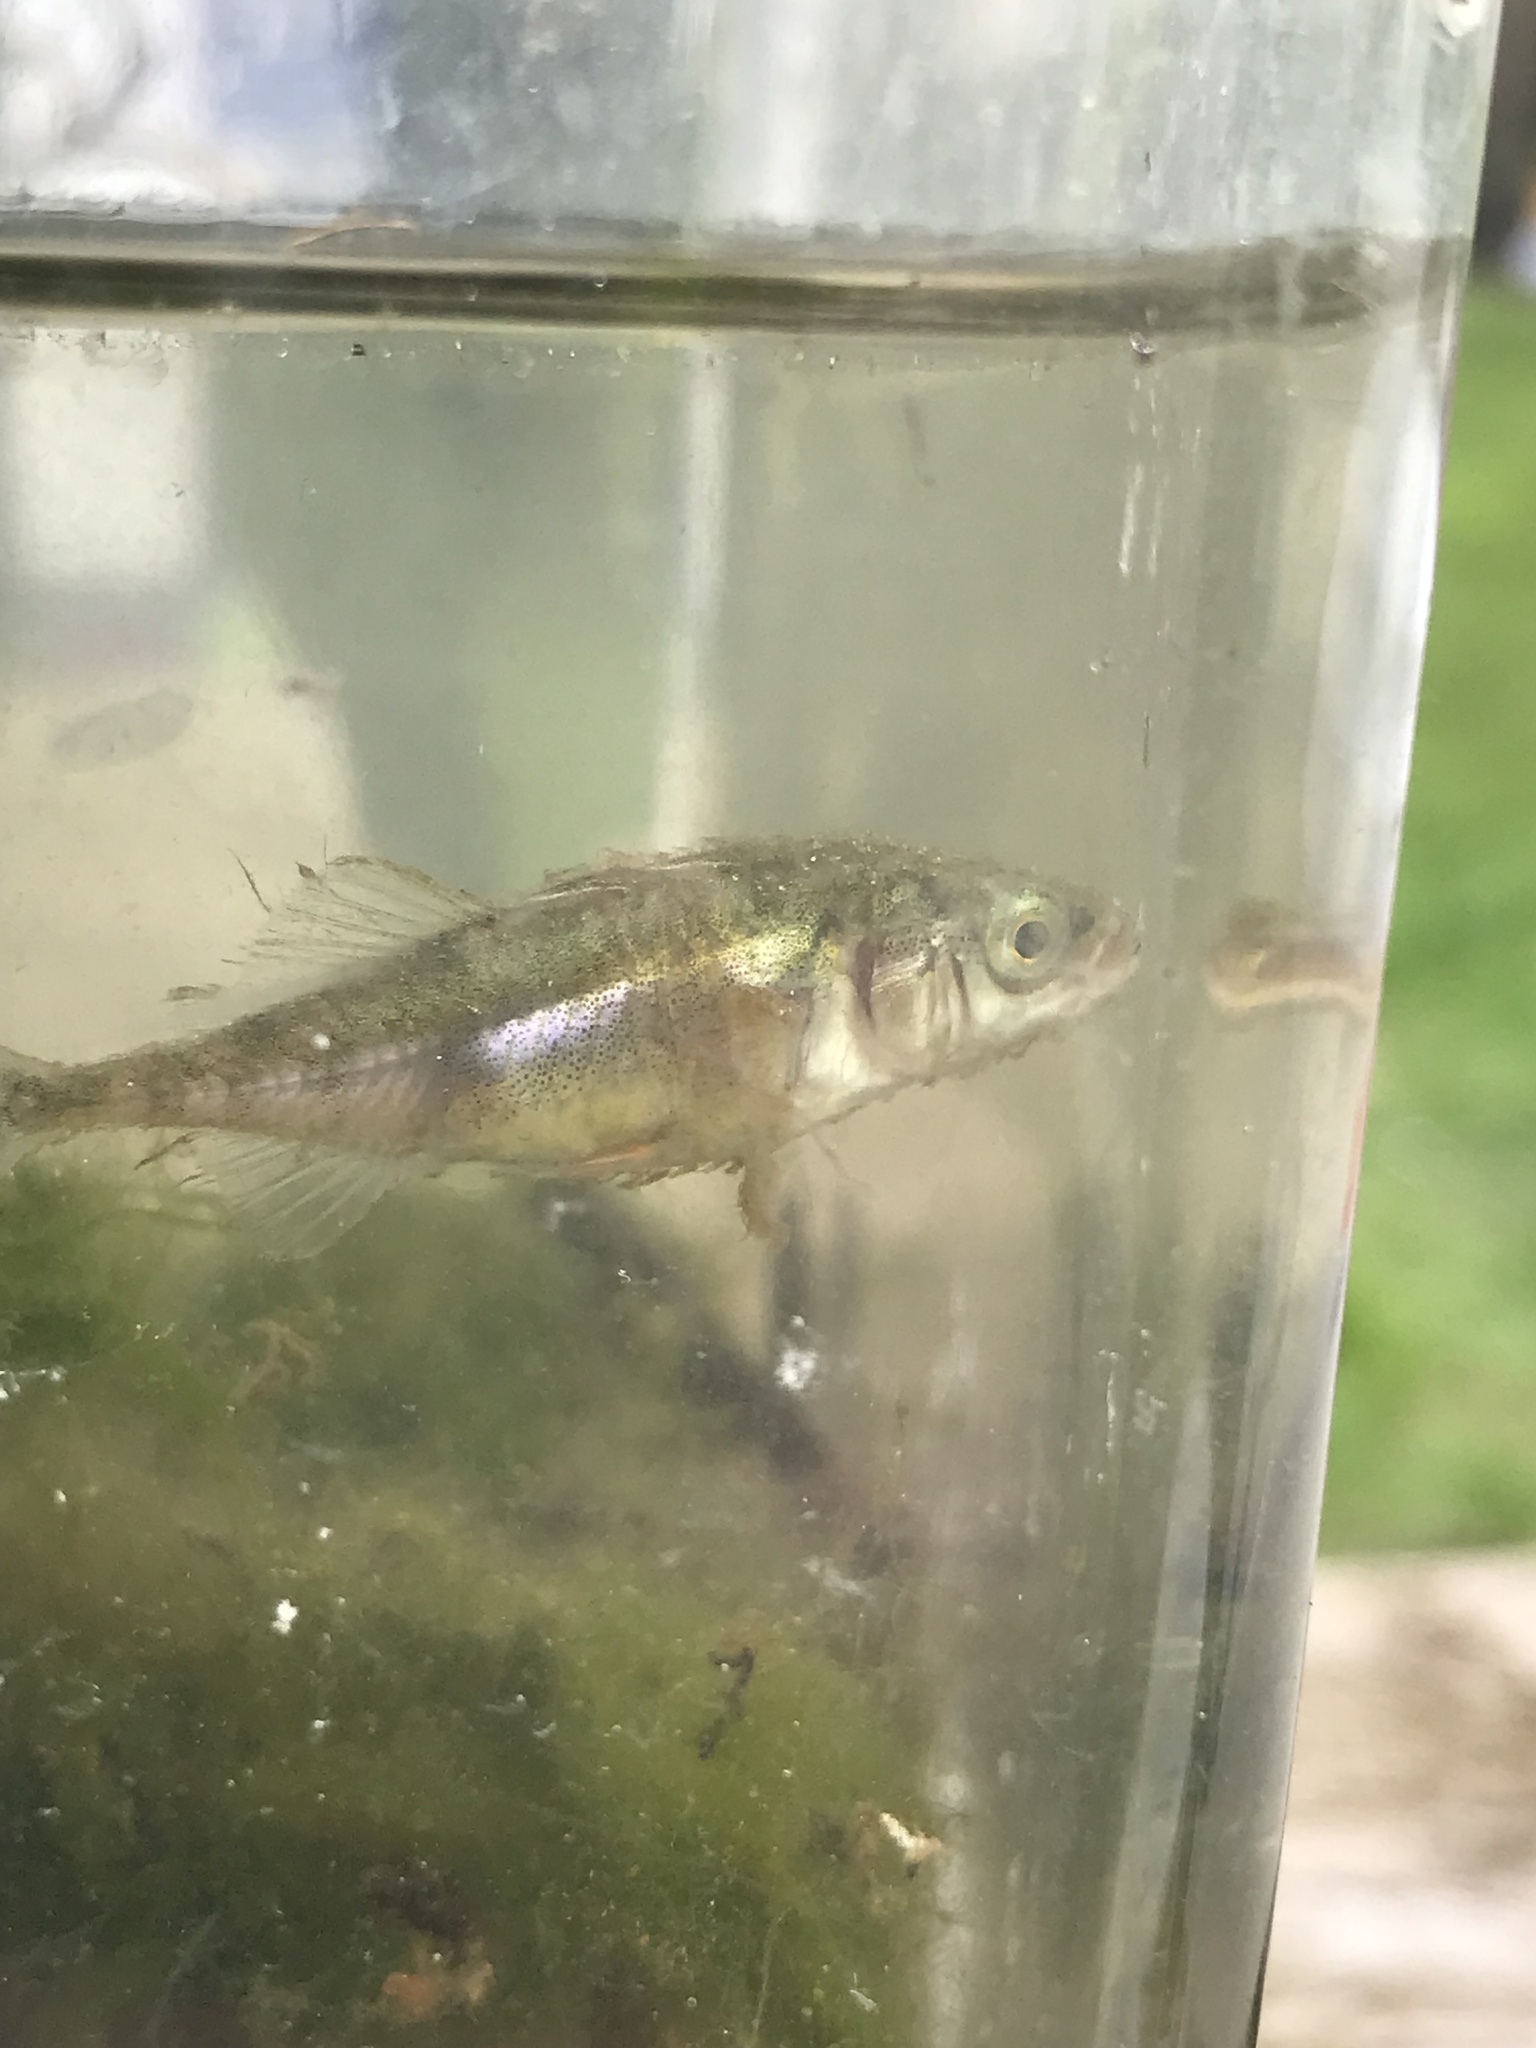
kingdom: Animalia
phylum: Chordata
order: Gasterosteiformes
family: Gasterosteidae
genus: Gasterosteus
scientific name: Gasterosteus aculeatus
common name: Three-spined stickleback
